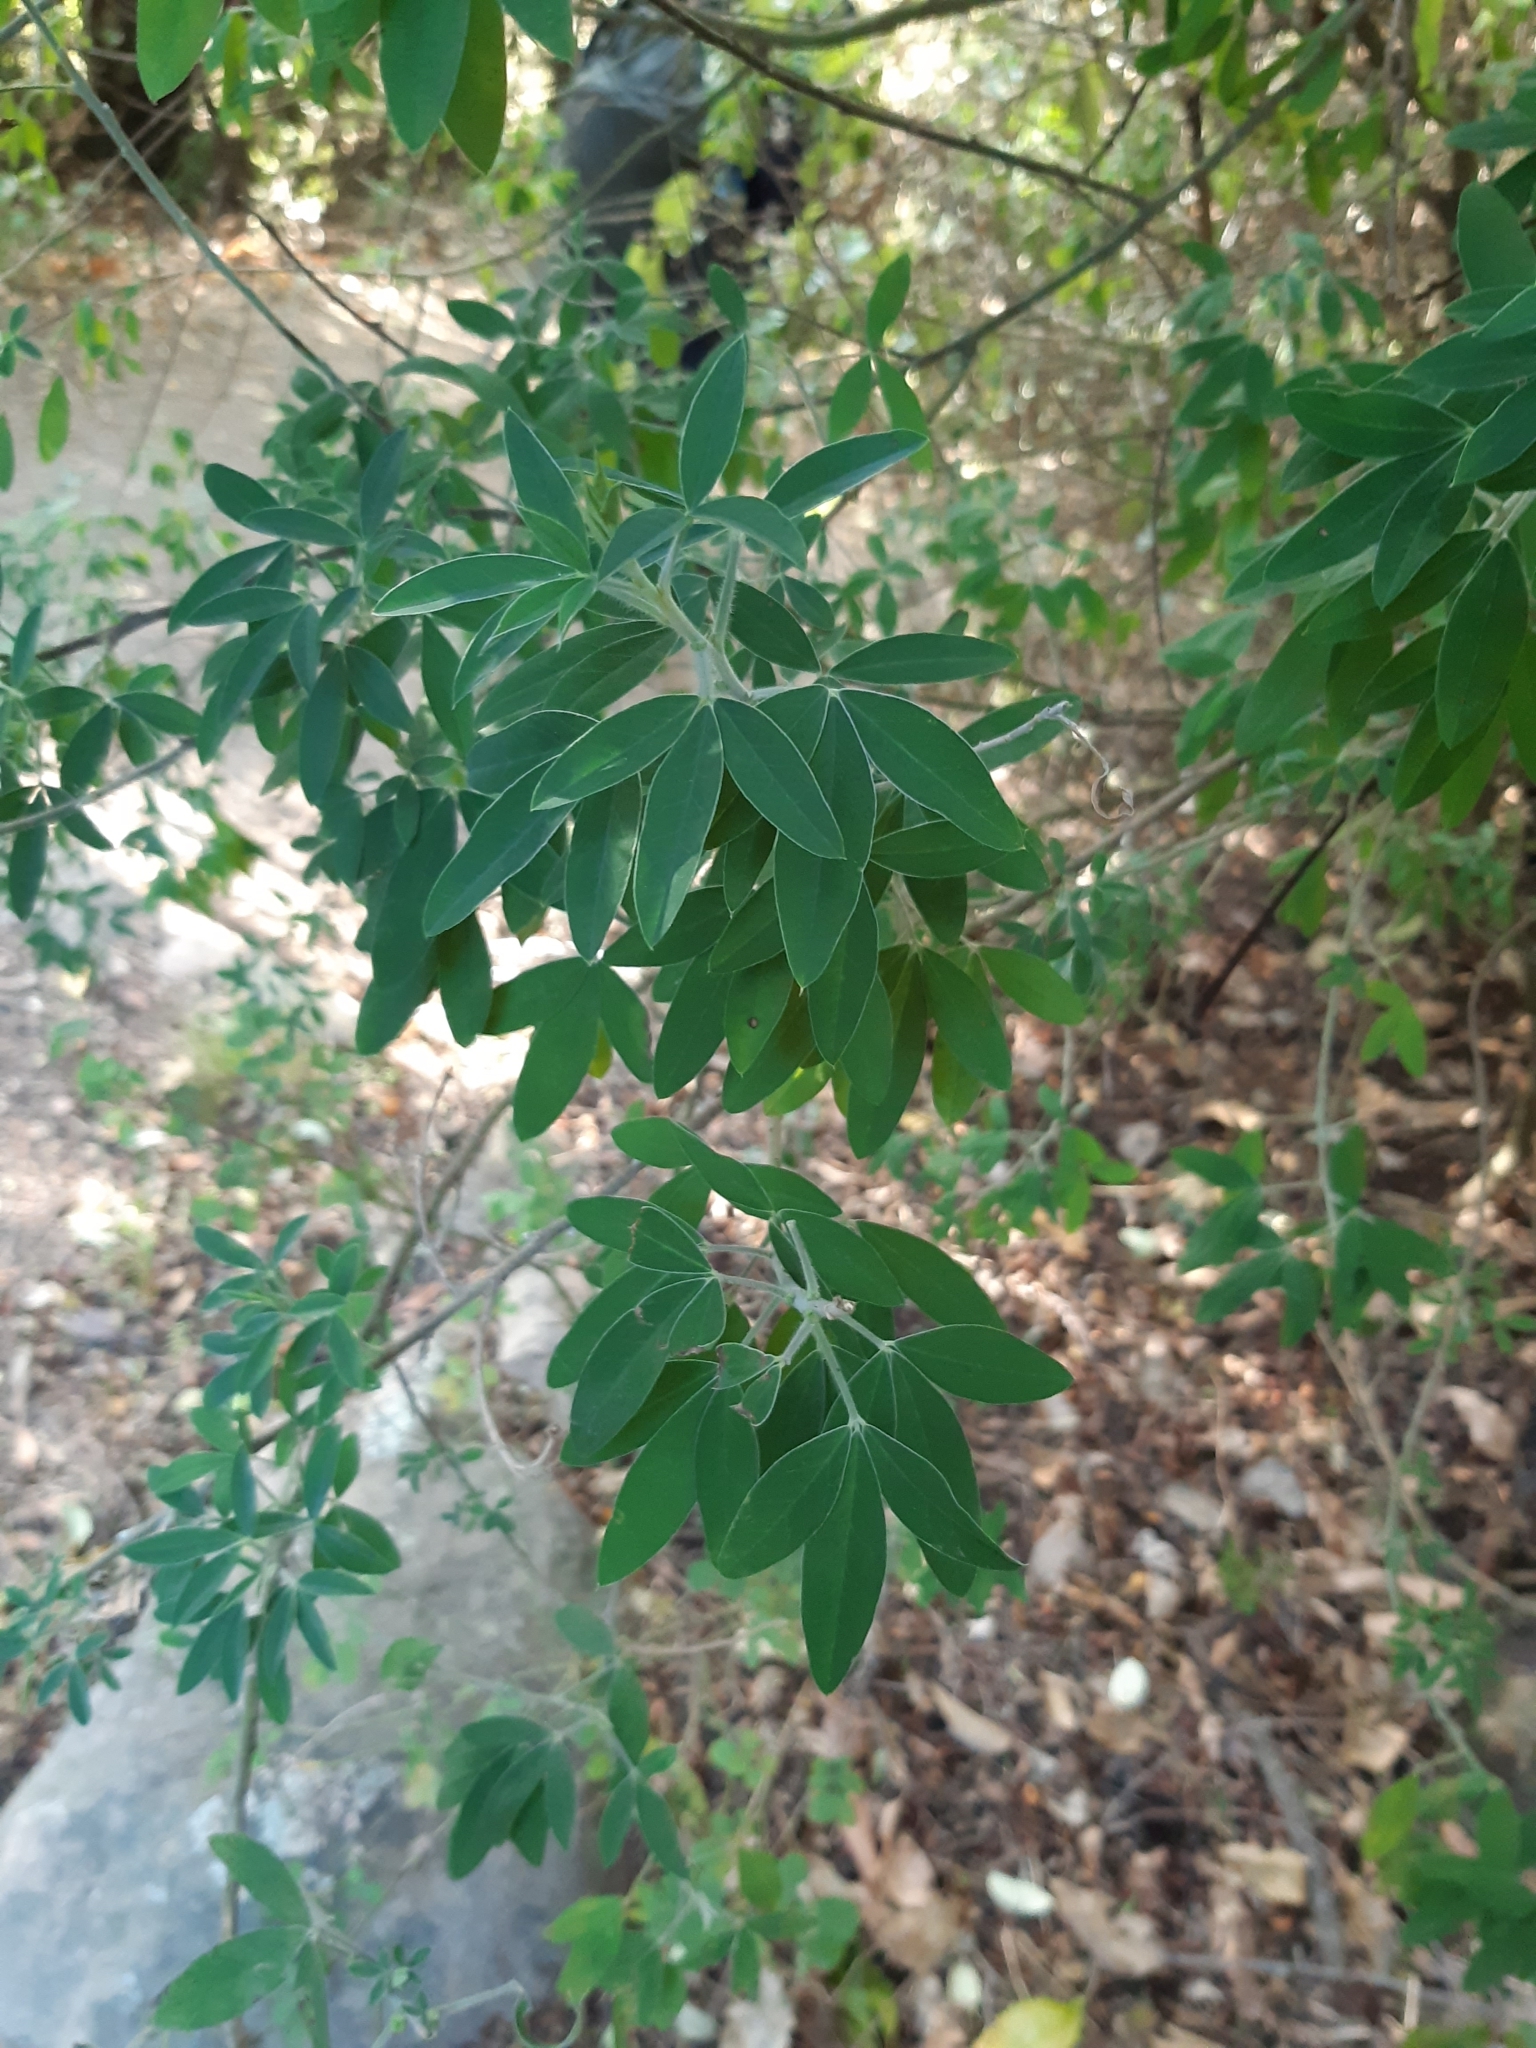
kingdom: Plantae
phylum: Tracheophyta
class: Magnoliopsida
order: Fabales
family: Fabaceae
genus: Chamaecytisus
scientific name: Chamaecytisus prolifer
